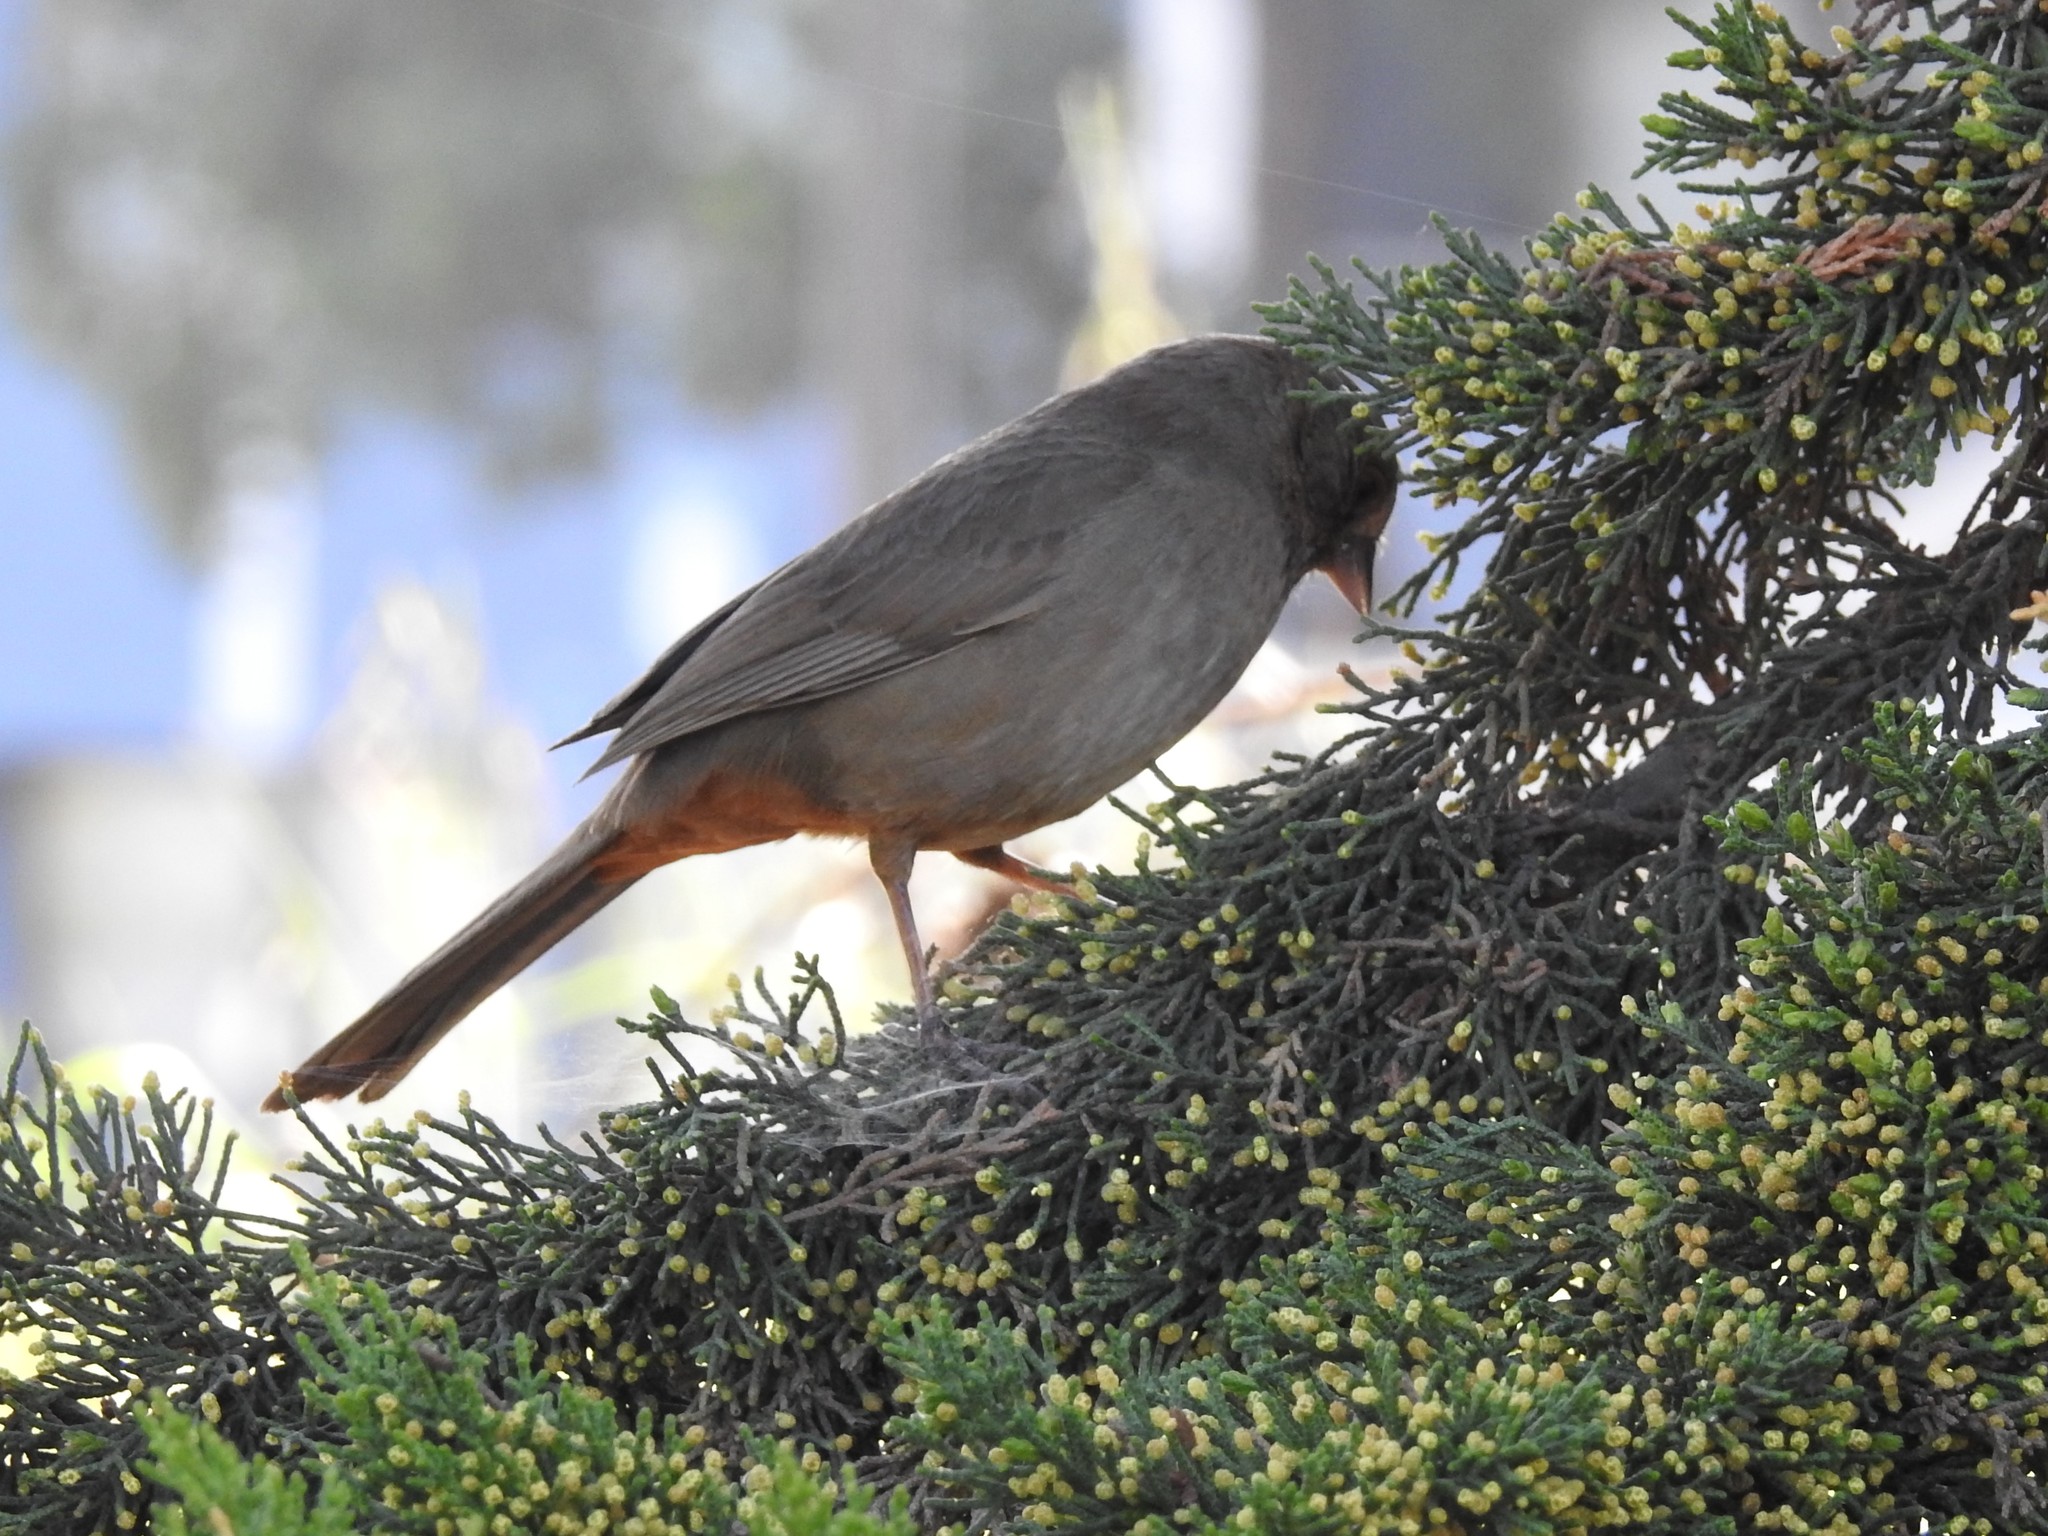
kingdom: Animalia
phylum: Chordata
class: Aves
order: Passeriformes
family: Passerellidae
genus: Melozone
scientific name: Melozone crissalis
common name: California towhee
